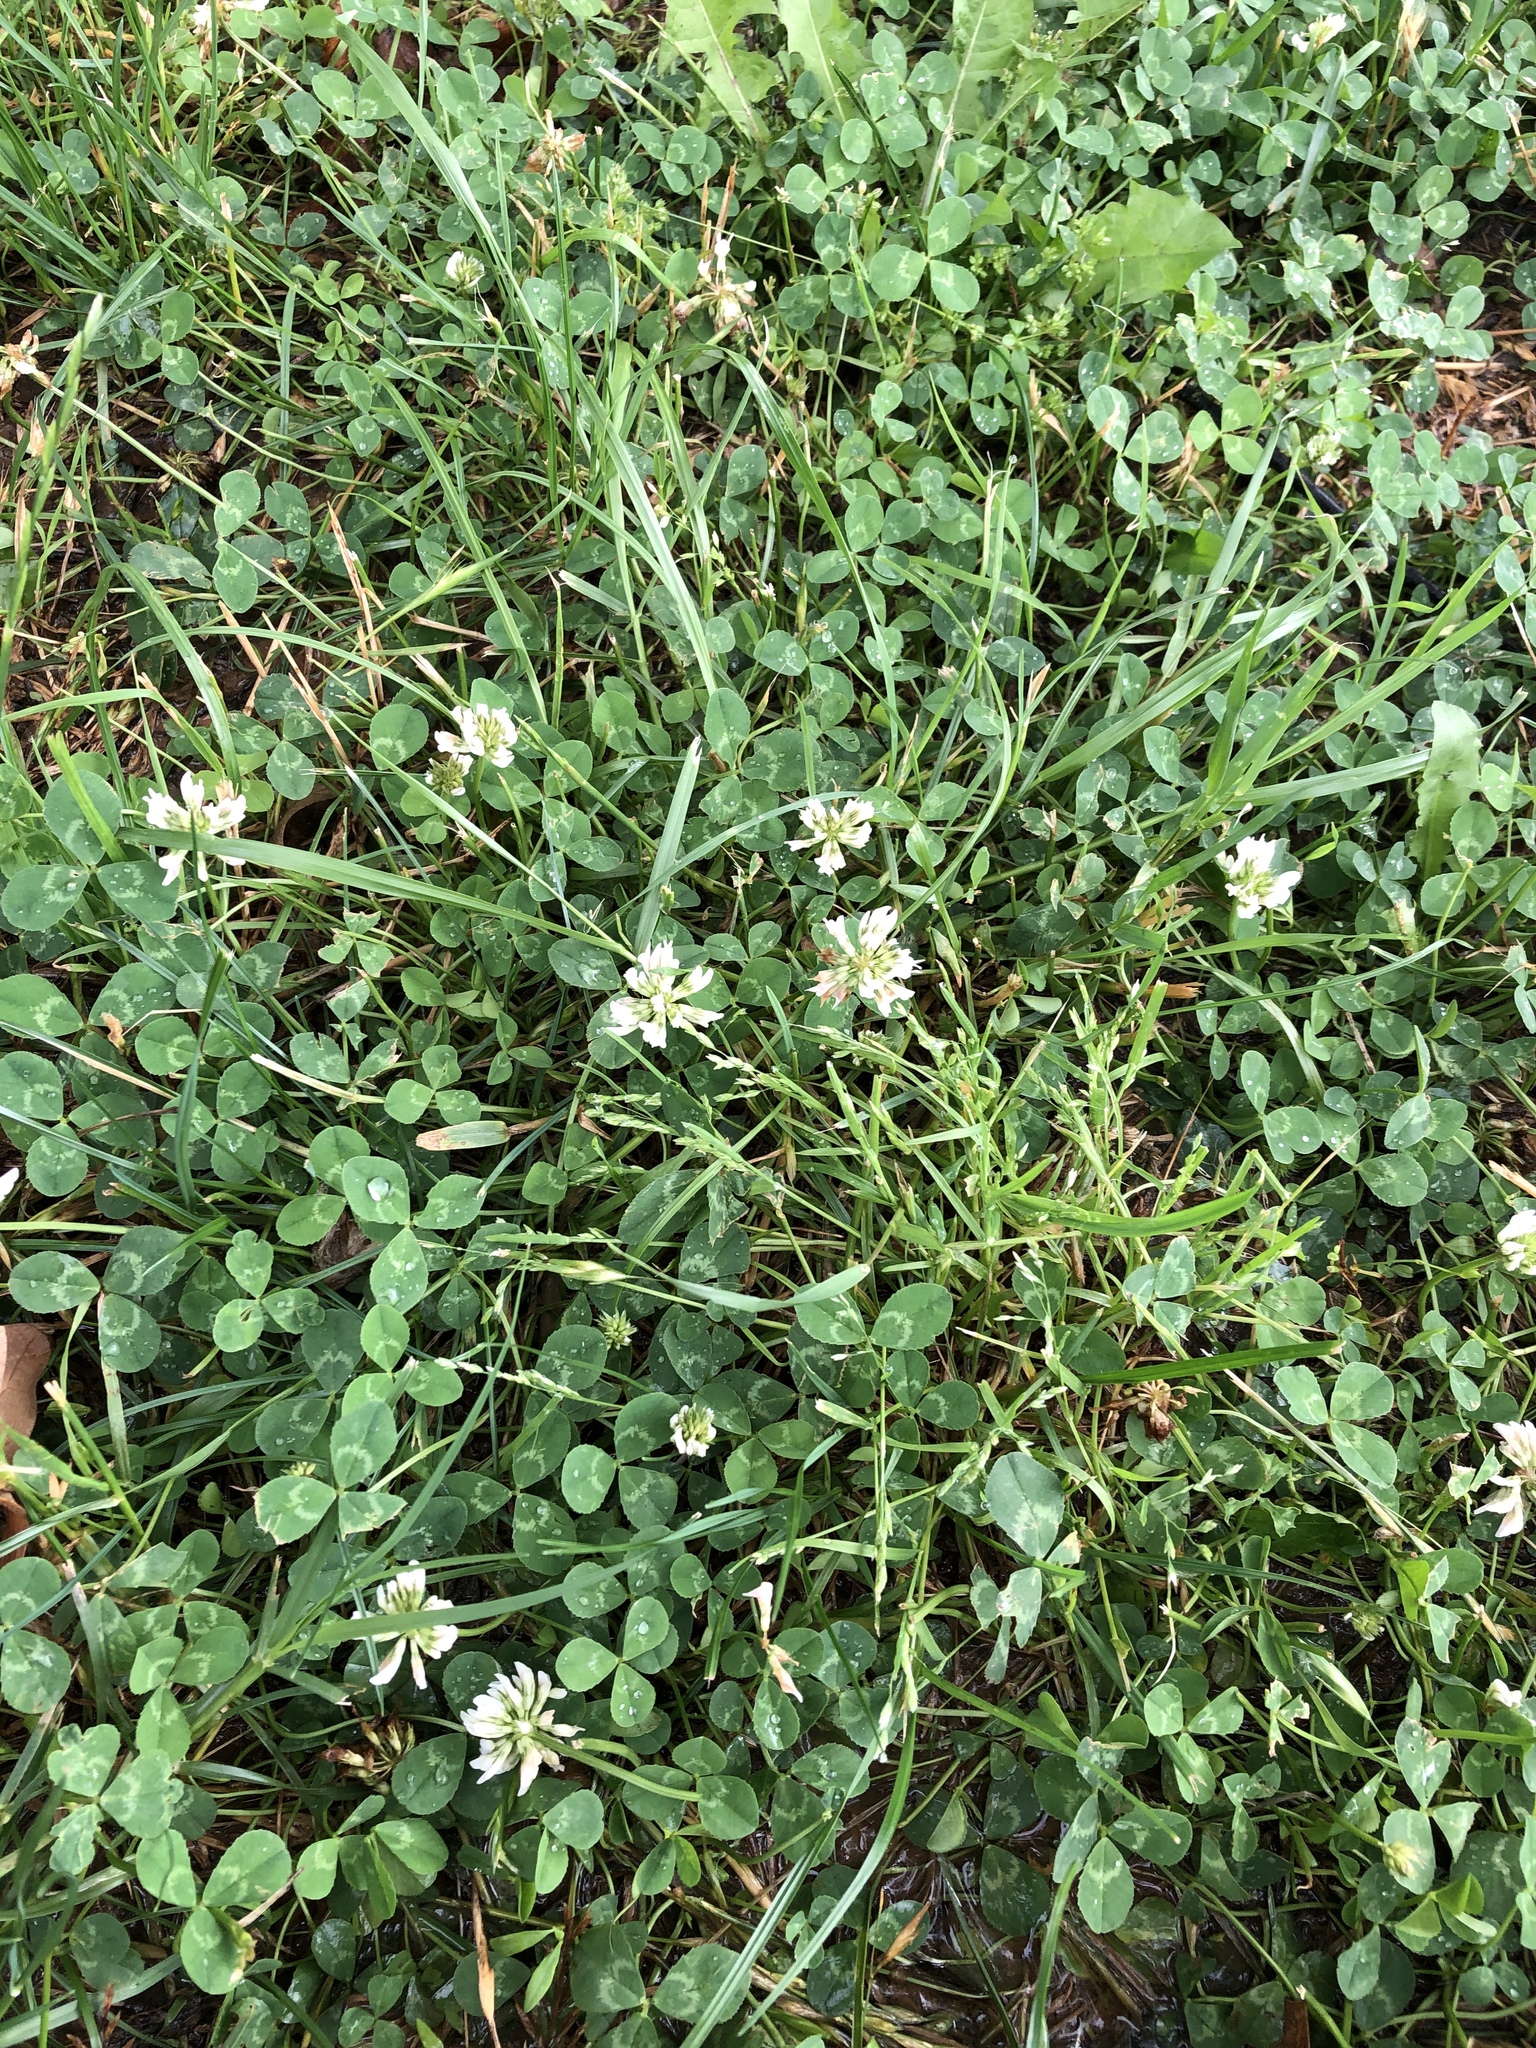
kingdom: Plantae
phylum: Tracheophyta
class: Magnoliopsida
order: Fabales
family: Fabaceae
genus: Trifolium
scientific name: Trifolium repens
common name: White clover
